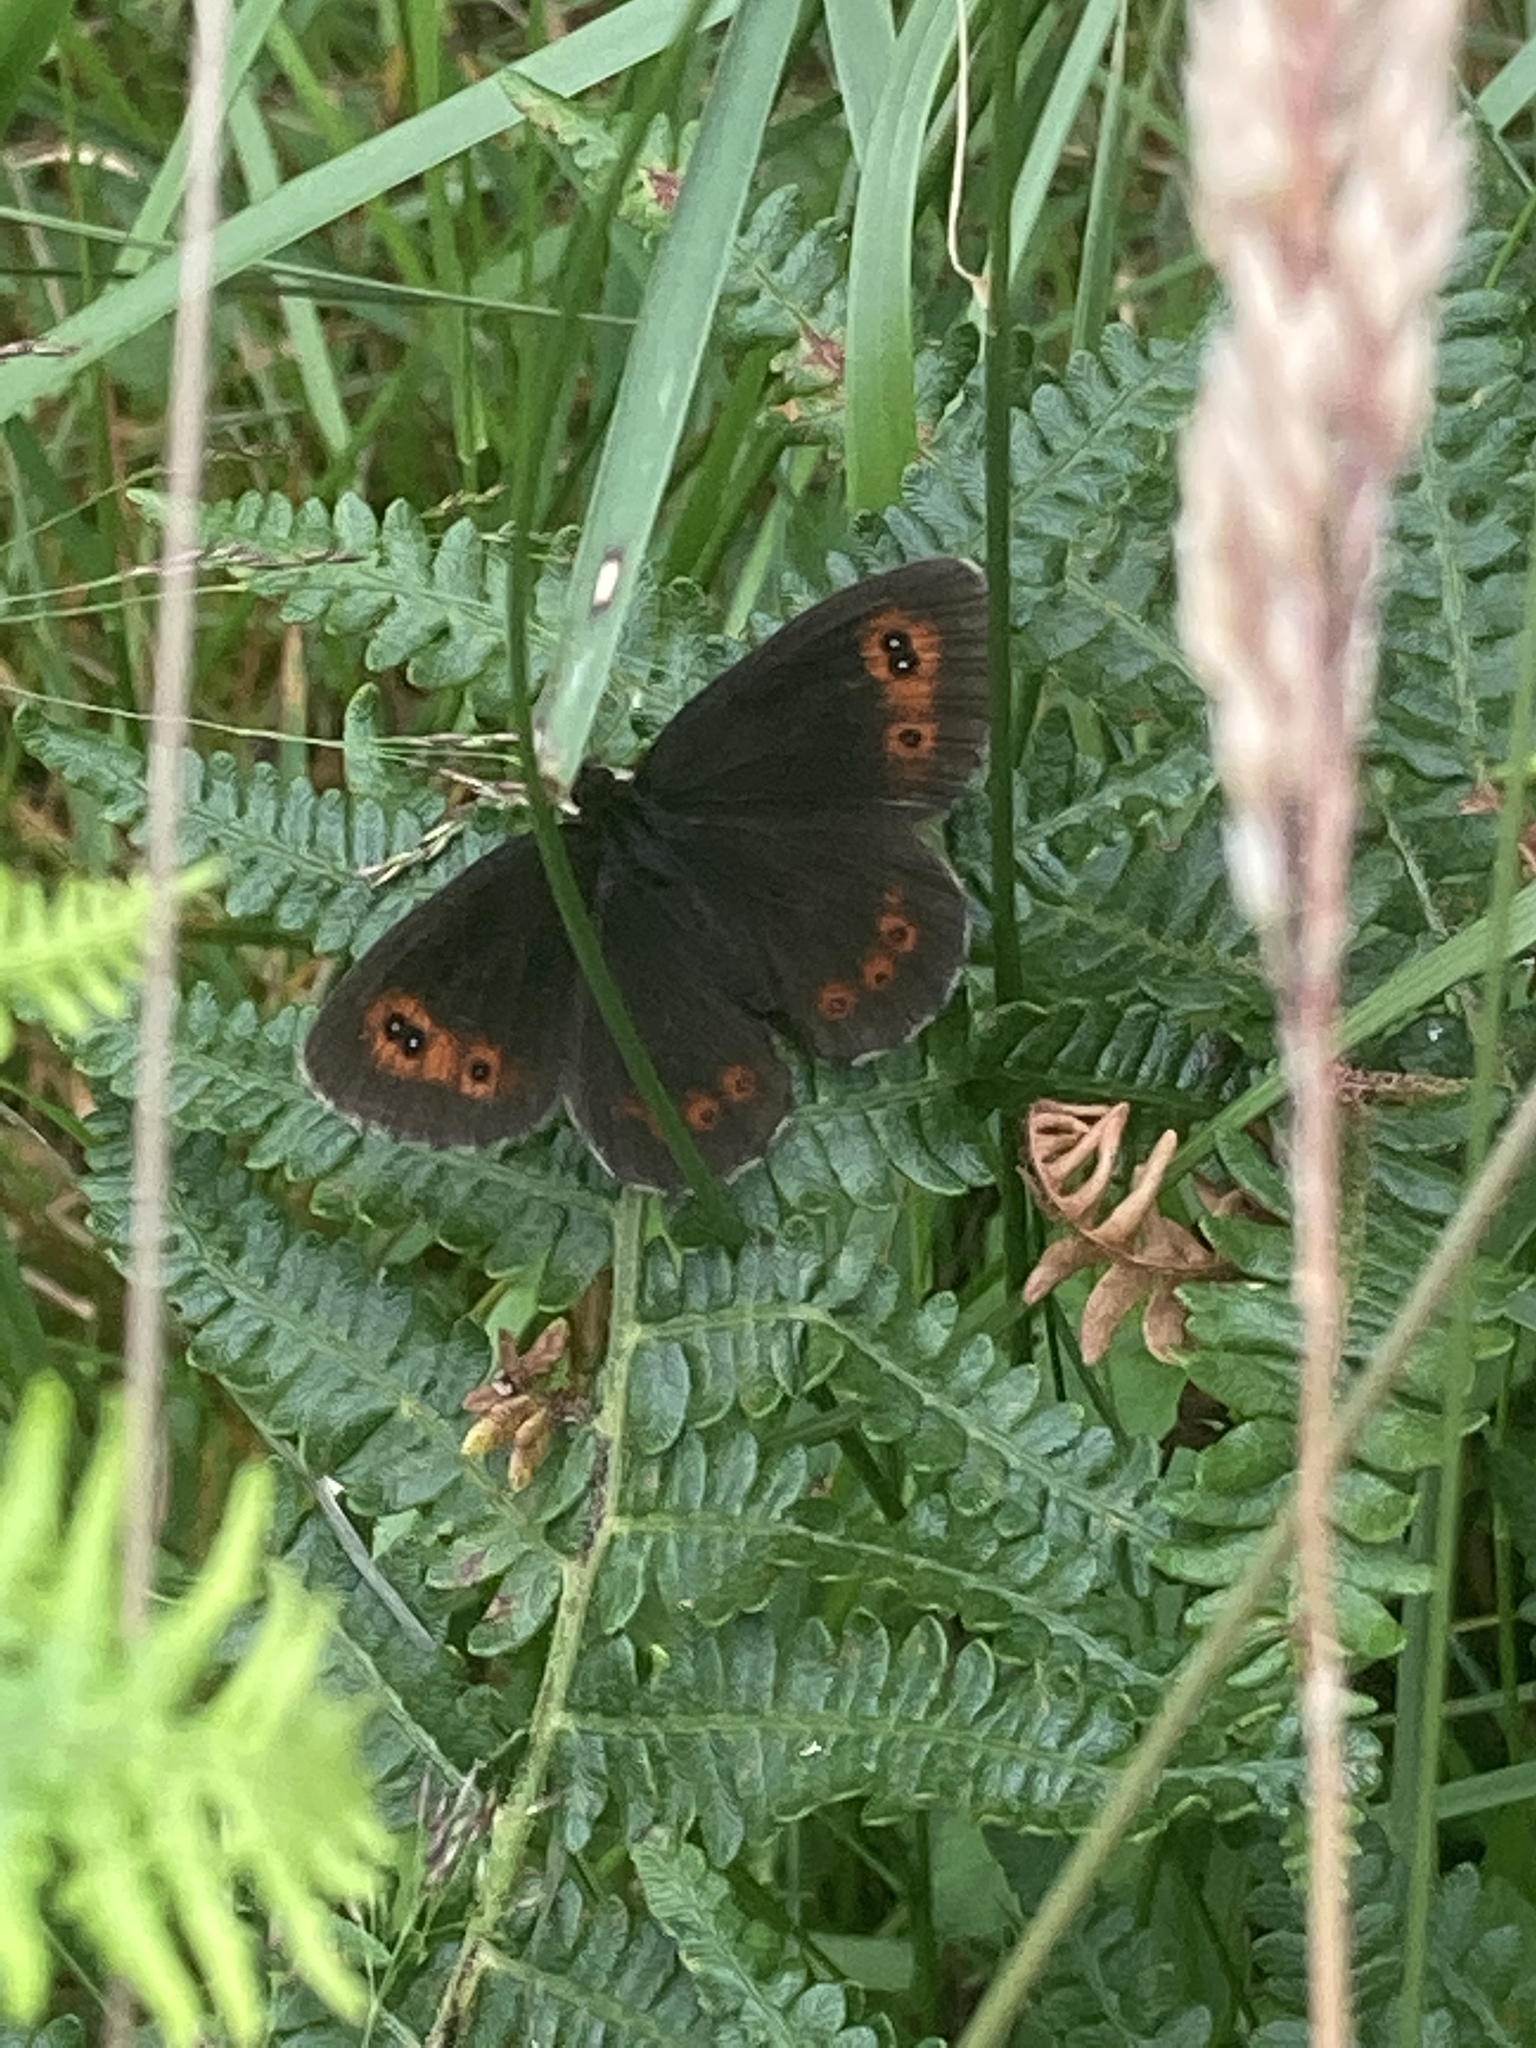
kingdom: Animalia
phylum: Arthropoda
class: Insecta
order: Lepidoptera
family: Nymphalidae
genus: Erebia
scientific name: Erebia aethiops
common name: Scotch argus
